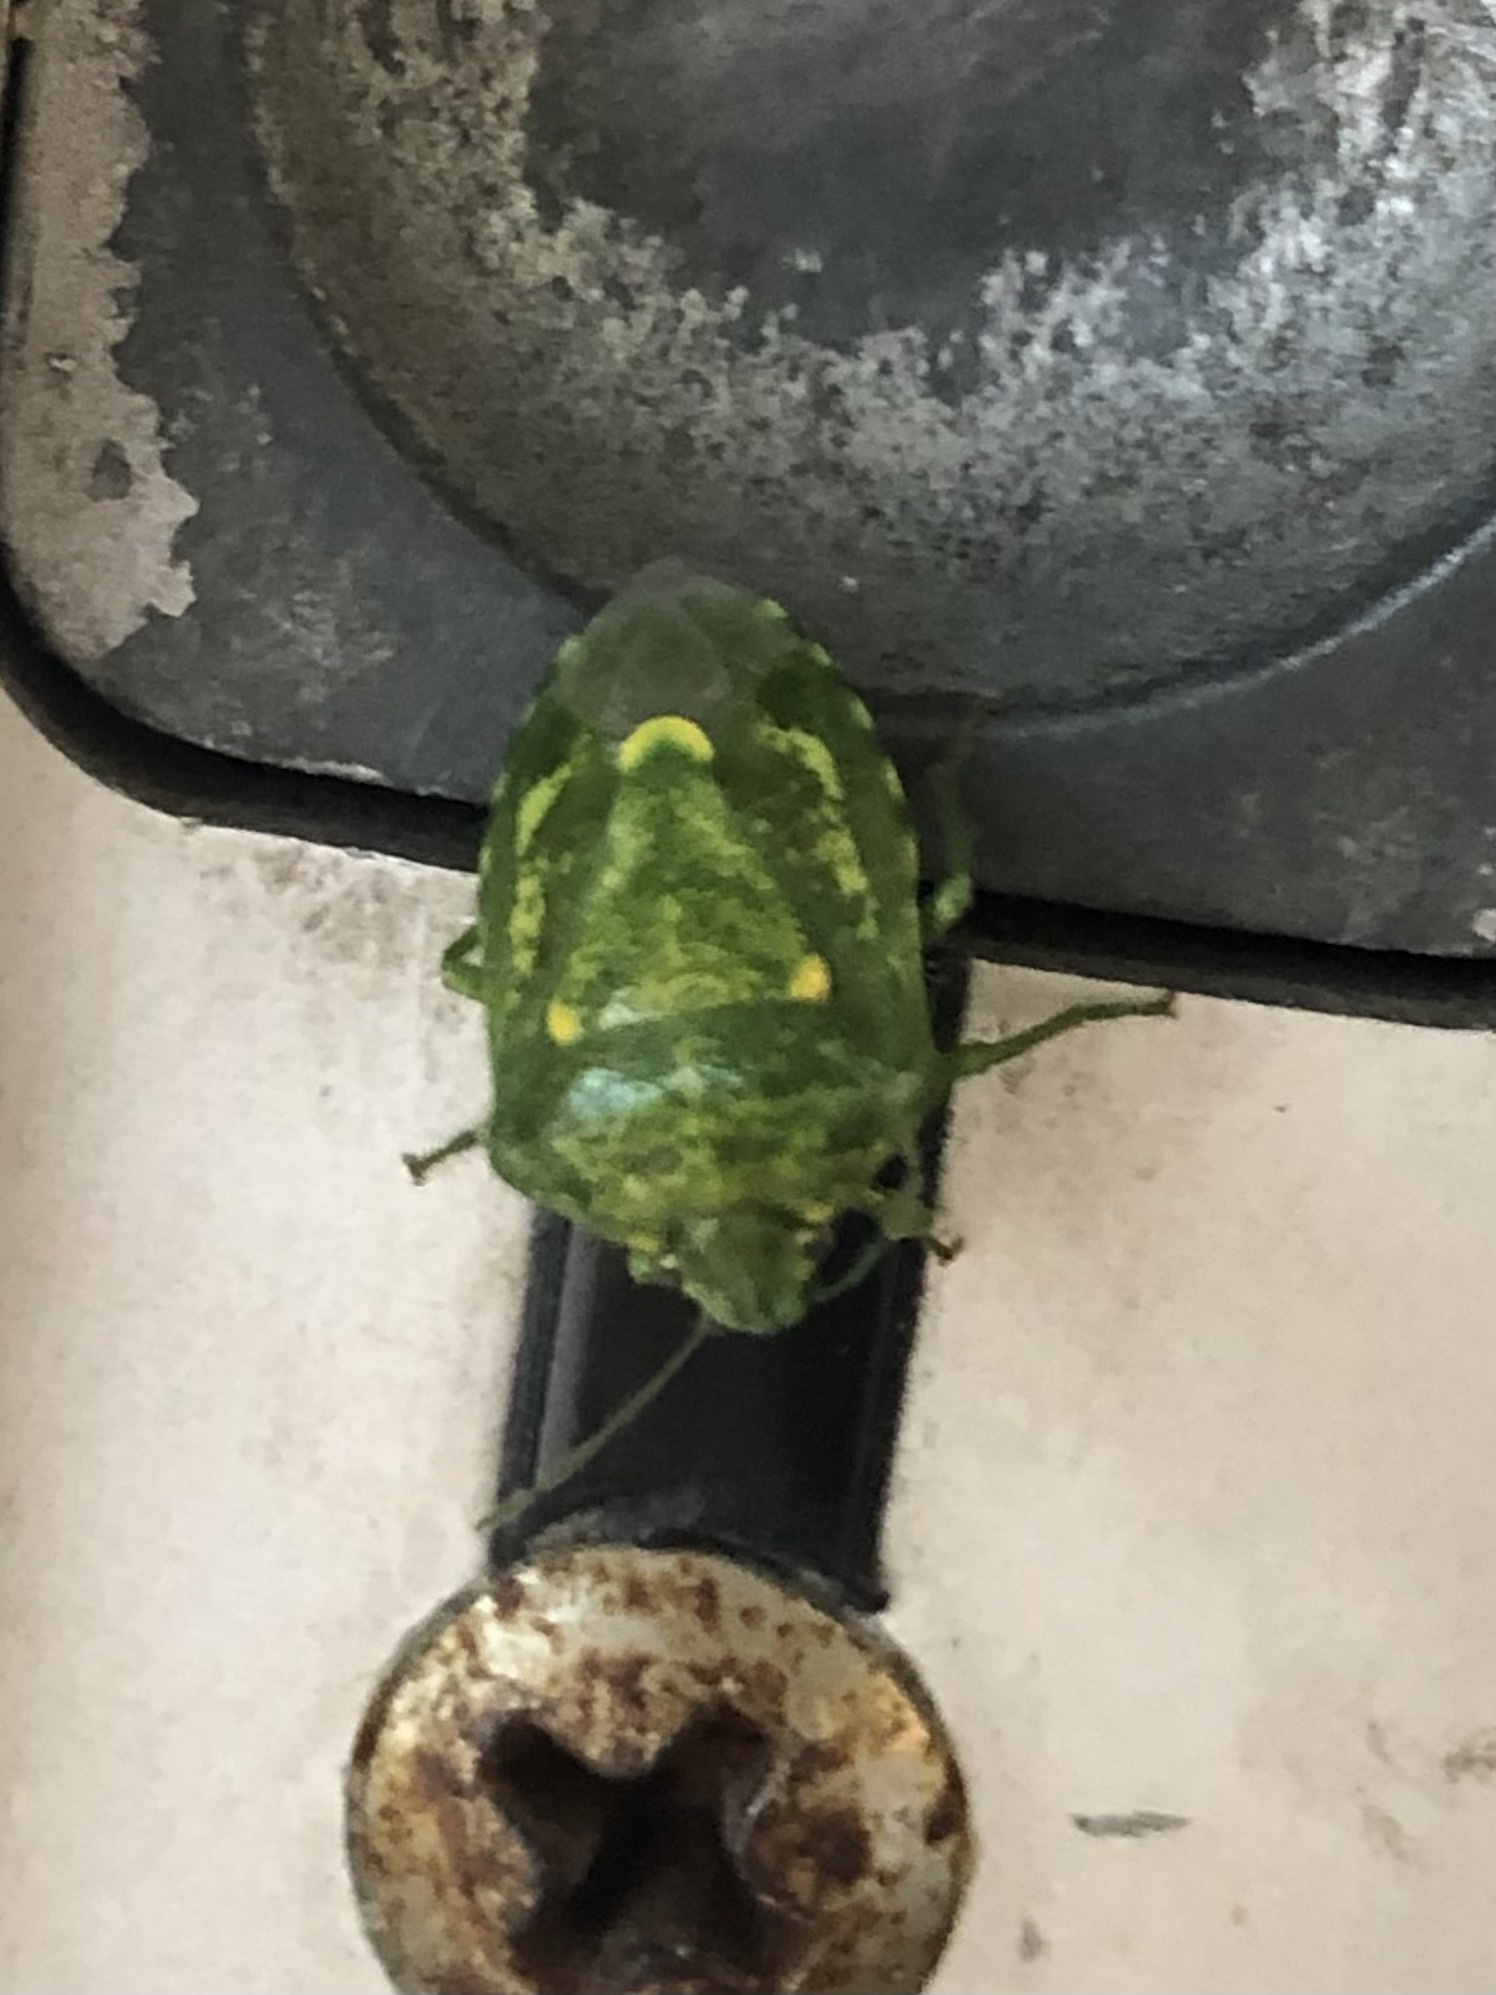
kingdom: Animalia
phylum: Arthropoda
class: Insecta
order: Hemiptera
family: Pentatomidae
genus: Banasa
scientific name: Banasa euchlora
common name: Cedar berry bug
